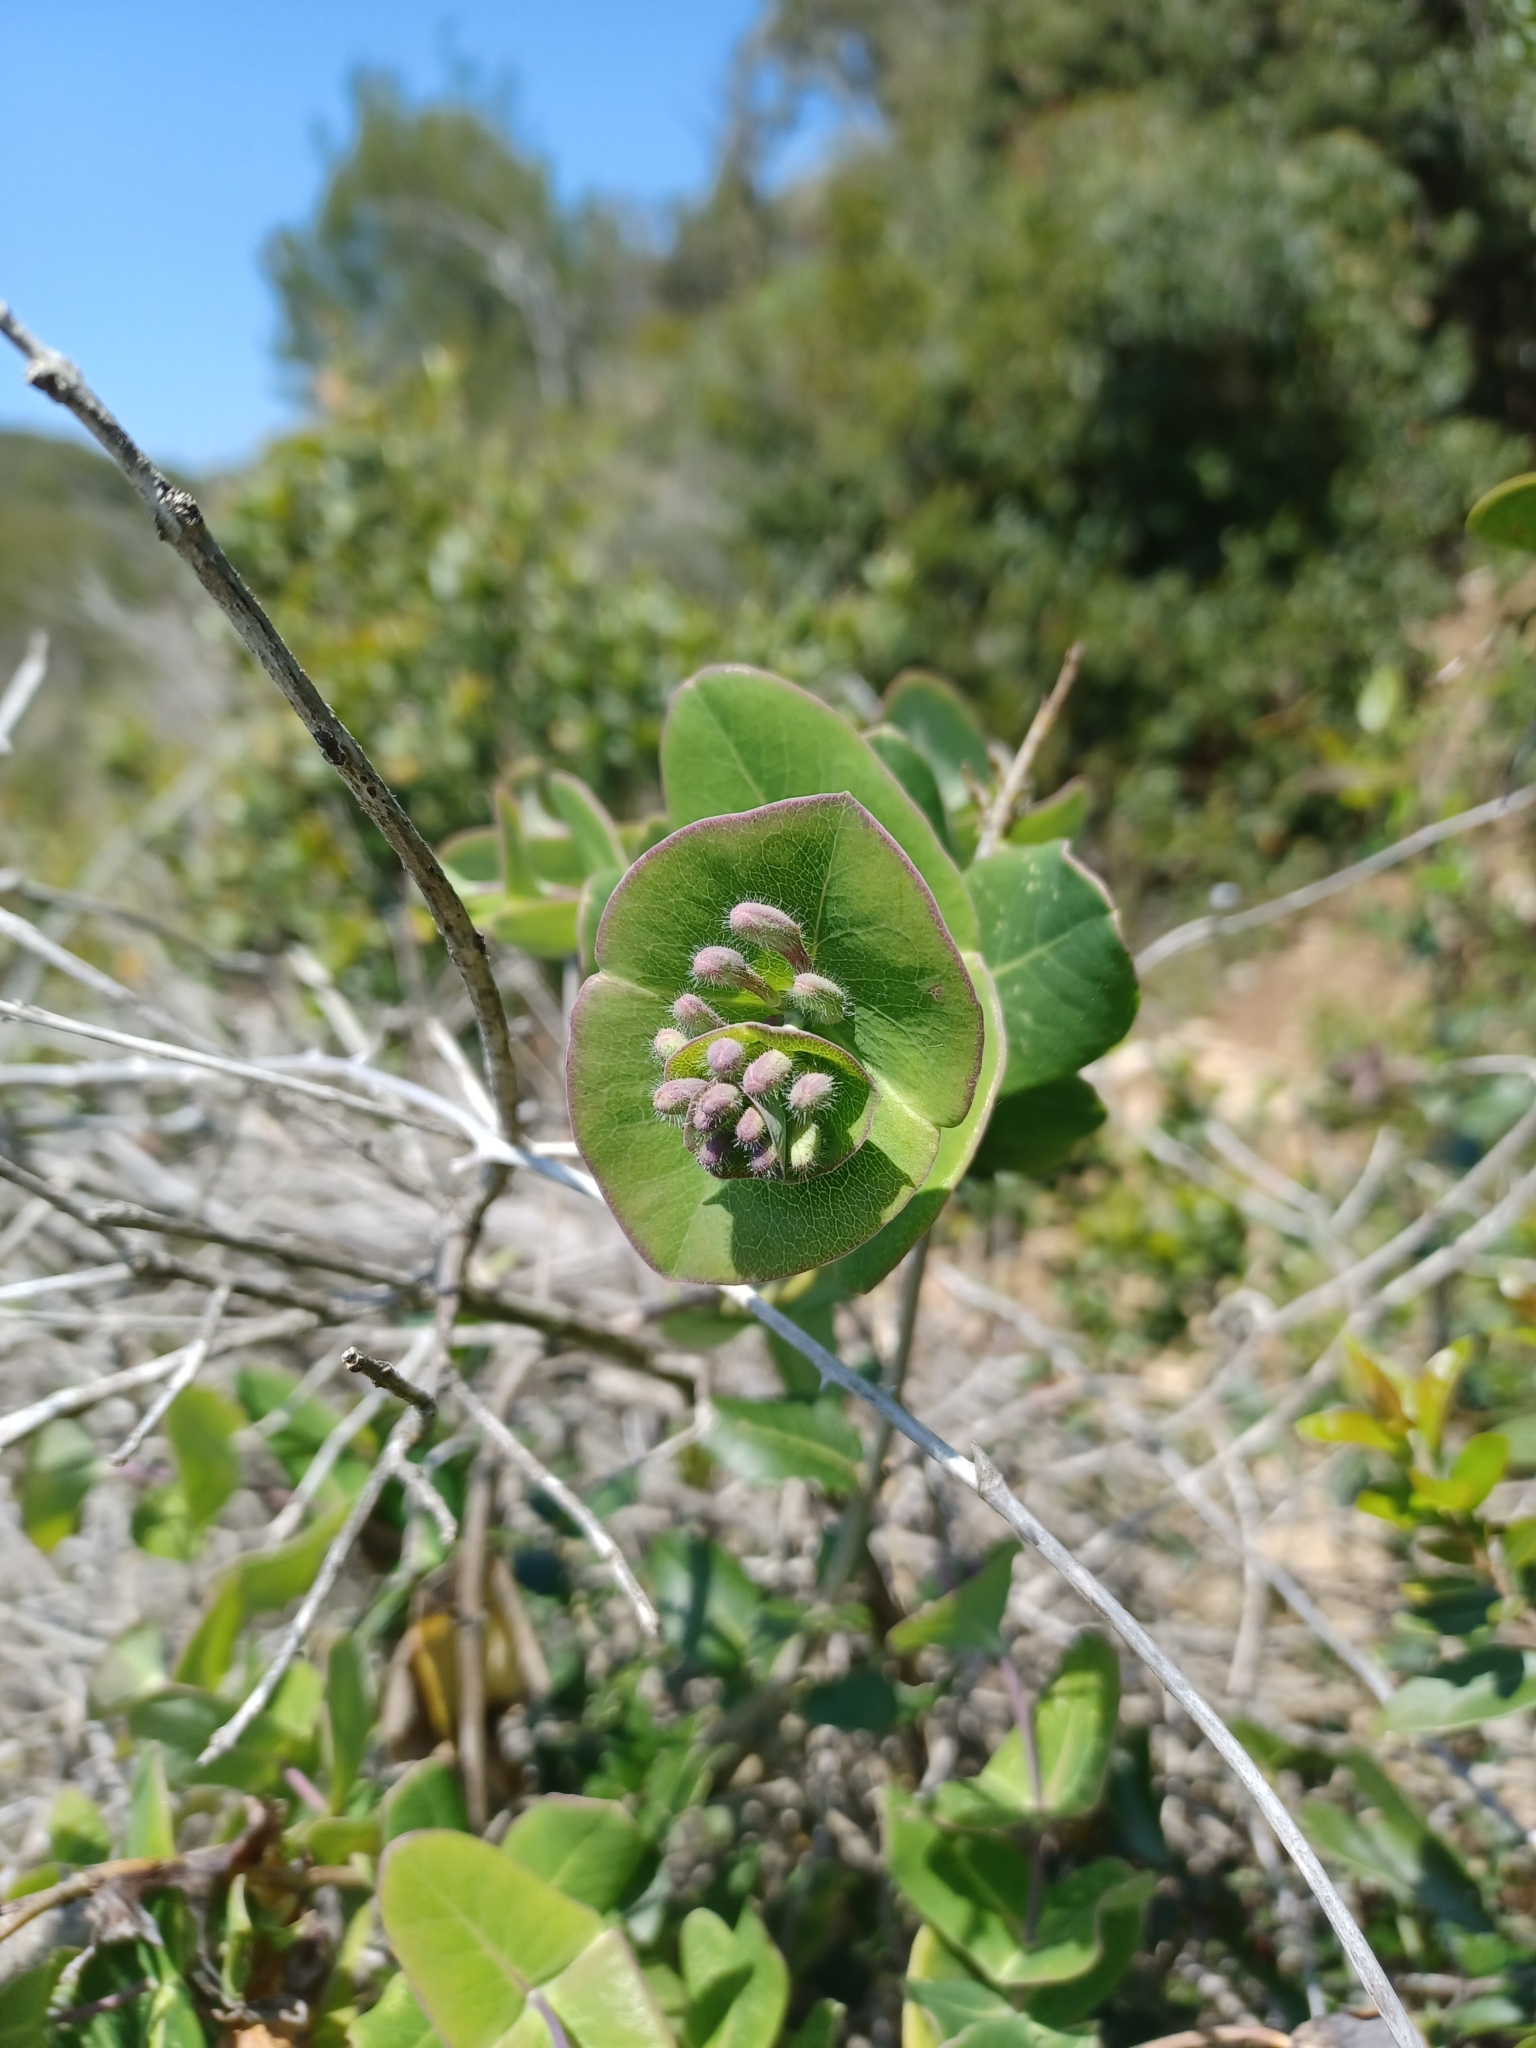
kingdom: Plantae
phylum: Tracheophyta
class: Magnoliopsida
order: Dipsacales
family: Caprifoliaceae
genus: Lonicera
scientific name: Lonicera implexa
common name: Minorca honeysuckle
